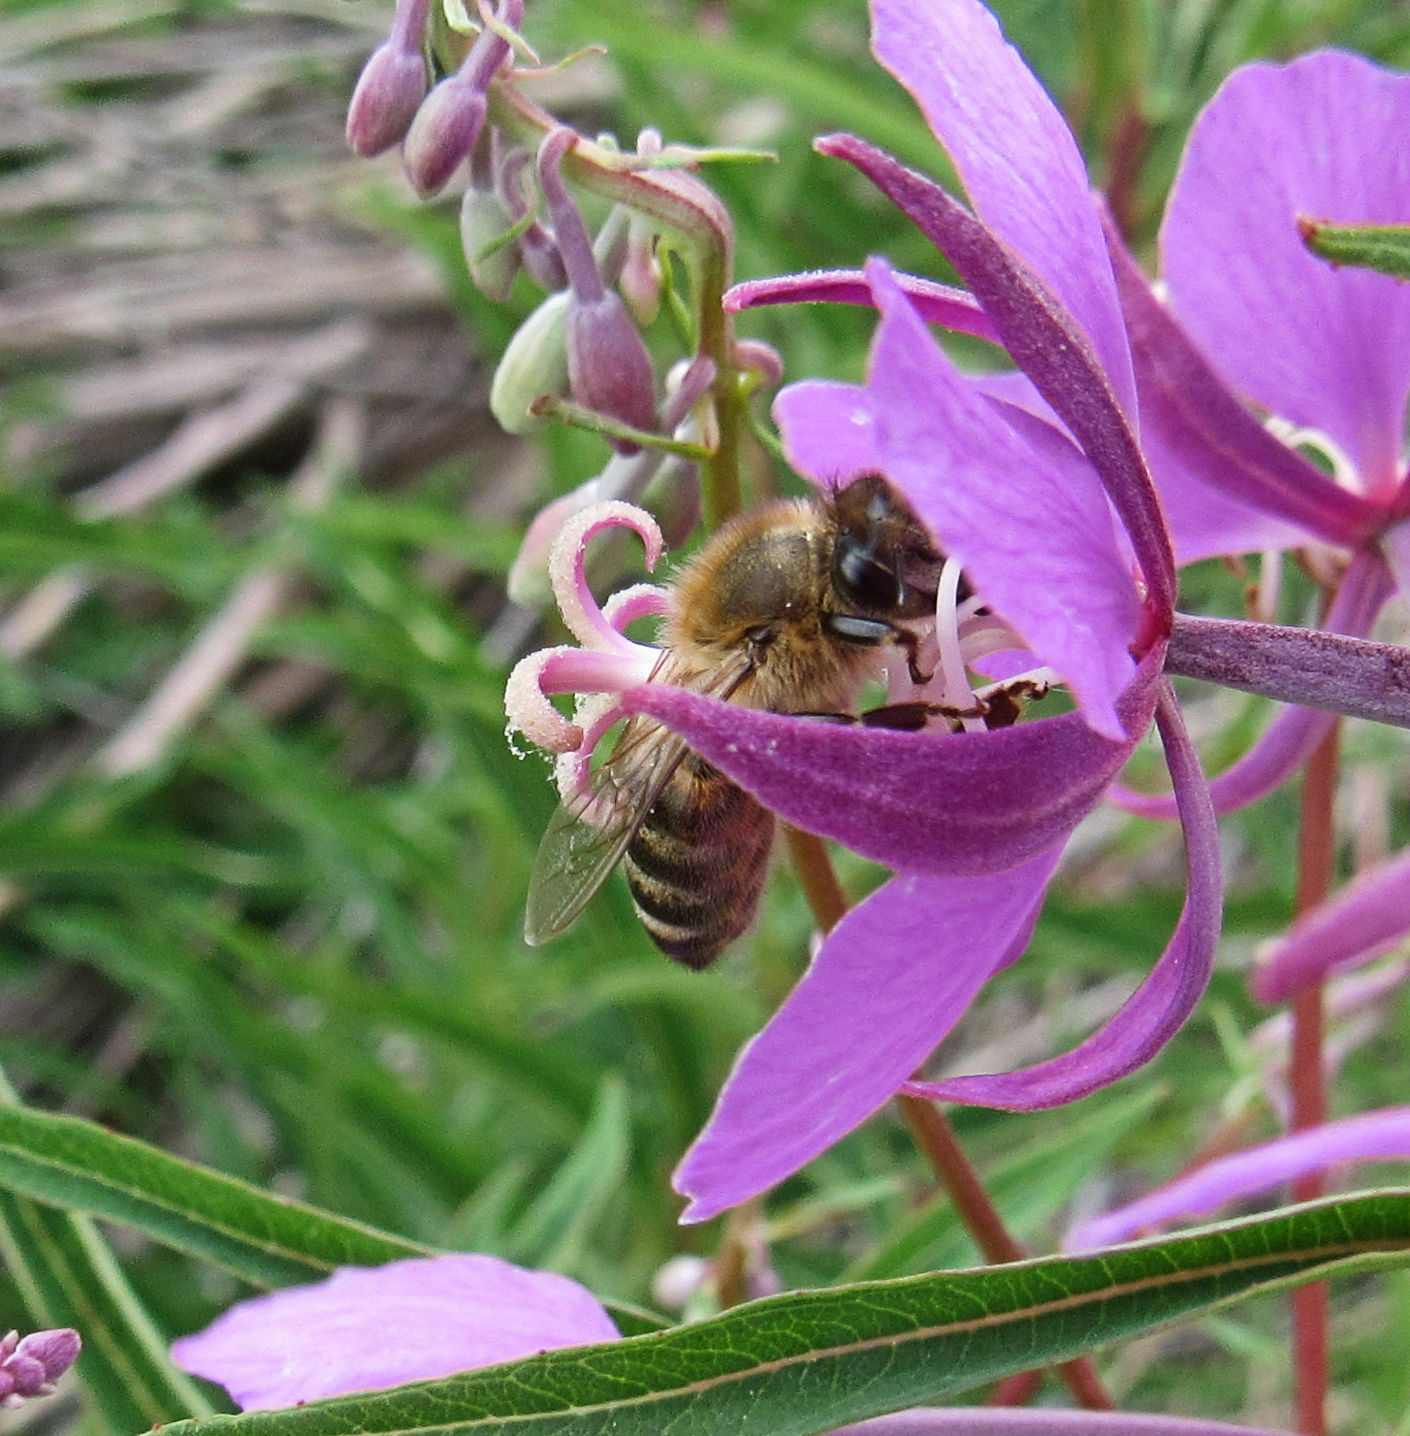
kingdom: Animalia
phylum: Arthropoda
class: Insecta
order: Hymenoptera
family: Apidae
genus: Apis
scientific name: Apis mellifera
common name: Honey bee
